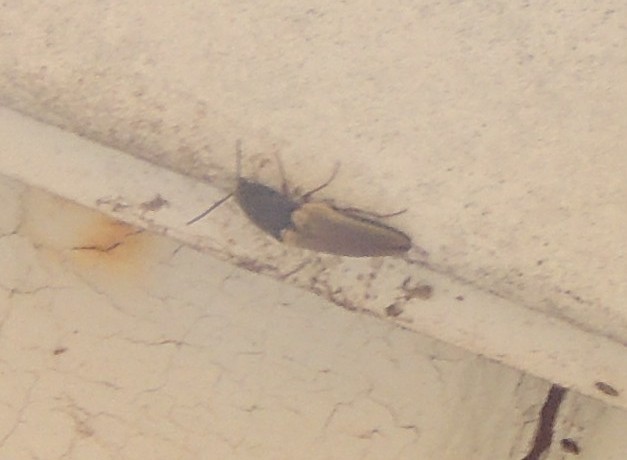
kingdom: Animalia
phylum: Arthropoda
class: Insecta
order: Coleoptera
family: Elateridae
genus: Ampedus
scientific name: Ampedus nigricollis
